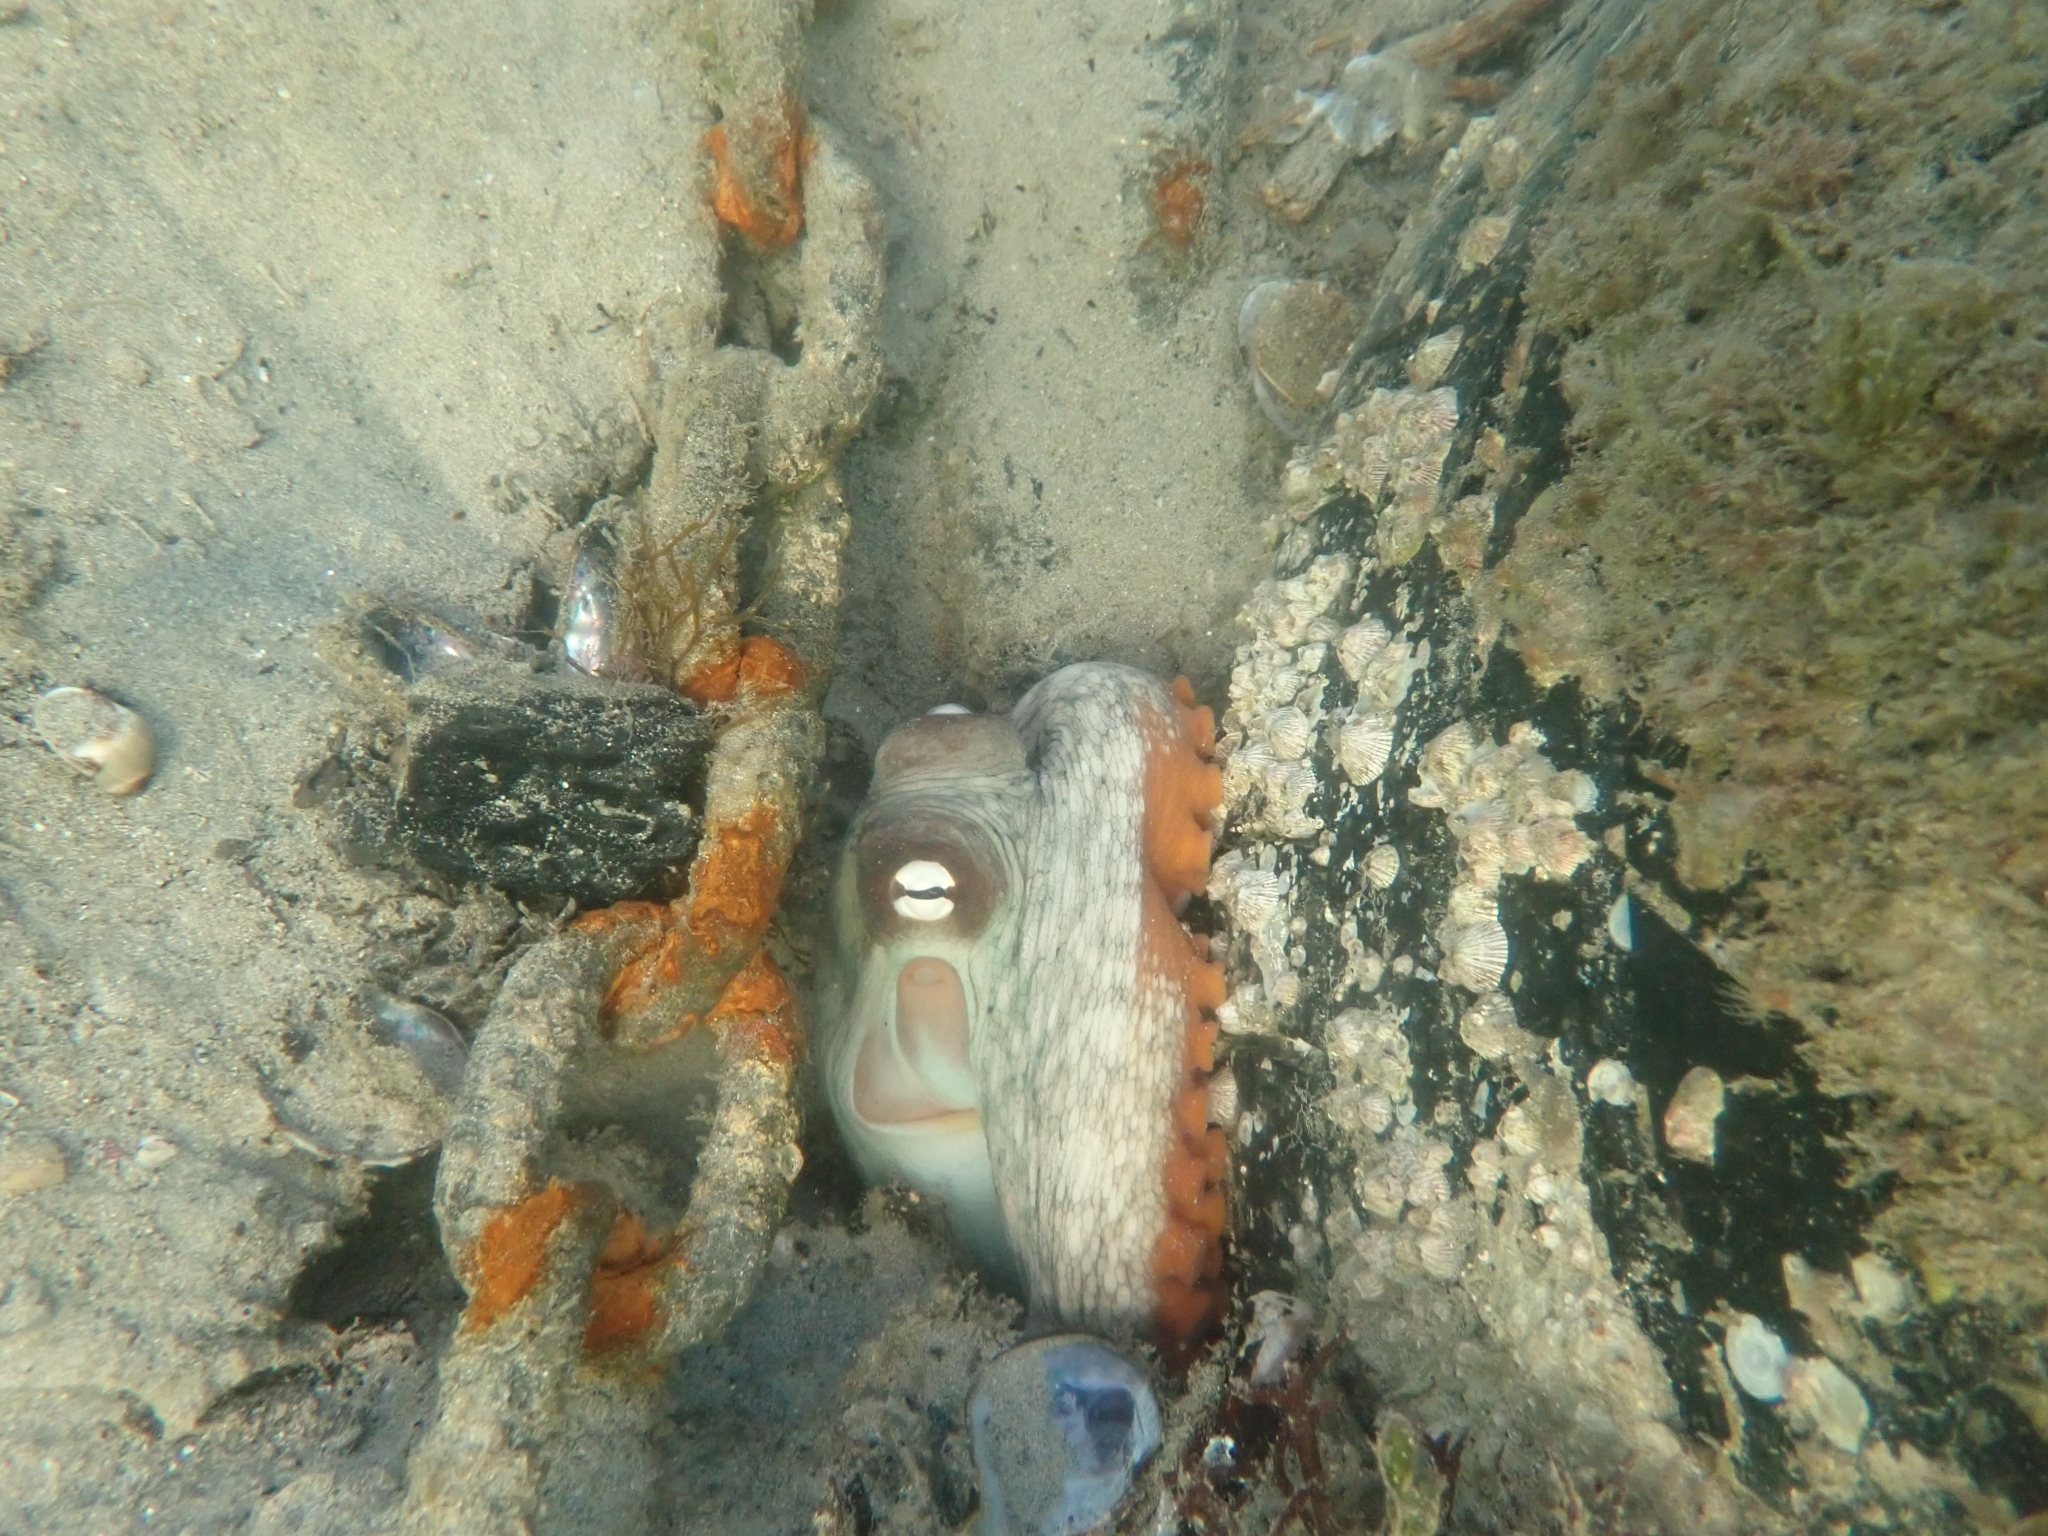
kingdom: Animalia
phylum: Mollusca
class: Cephalopoda
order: Octopoda
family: Octopodidae
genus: Octopus
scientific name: Octopus tetricus
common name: Sydney octopus
